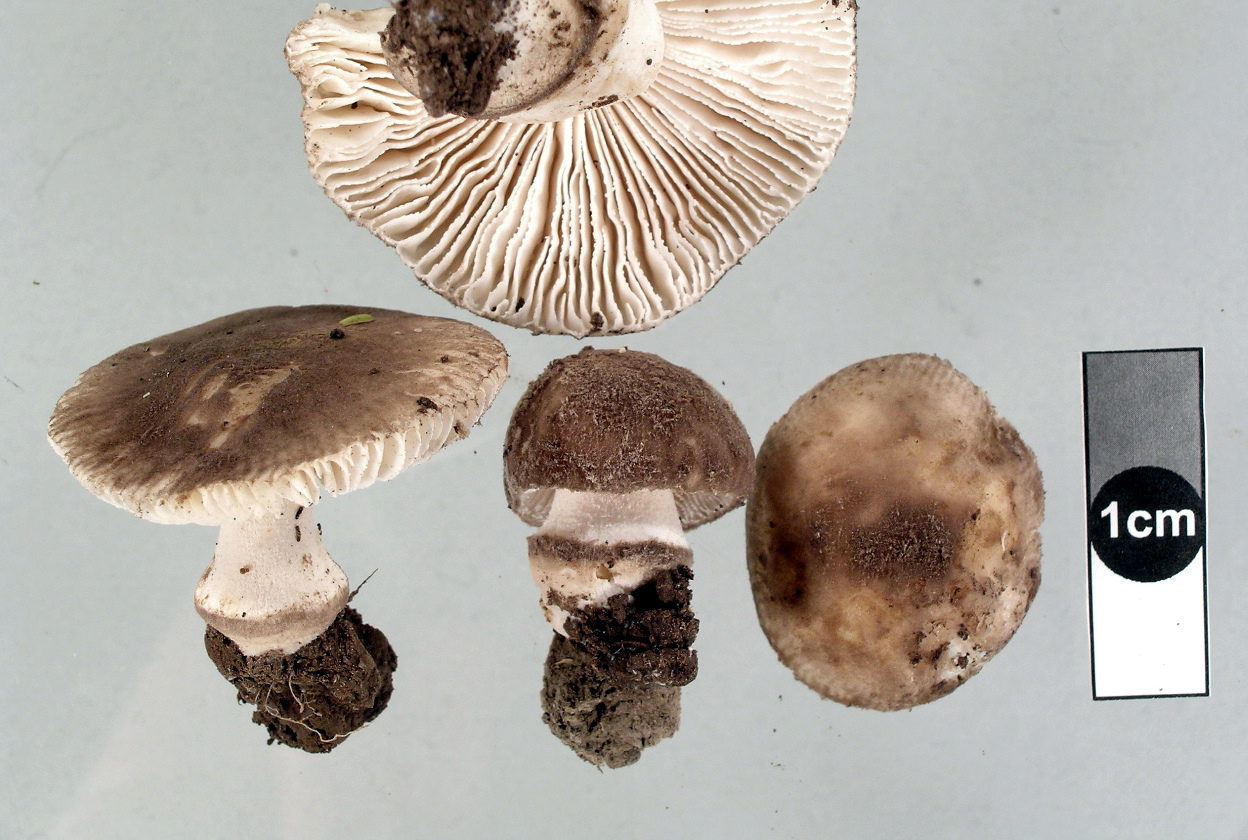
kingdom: Fungi
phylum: Basidiomycota
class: Agaricomycetes
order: Agaricales
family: Amanitaceae
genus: Amanita
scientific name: Amanita nehuta
